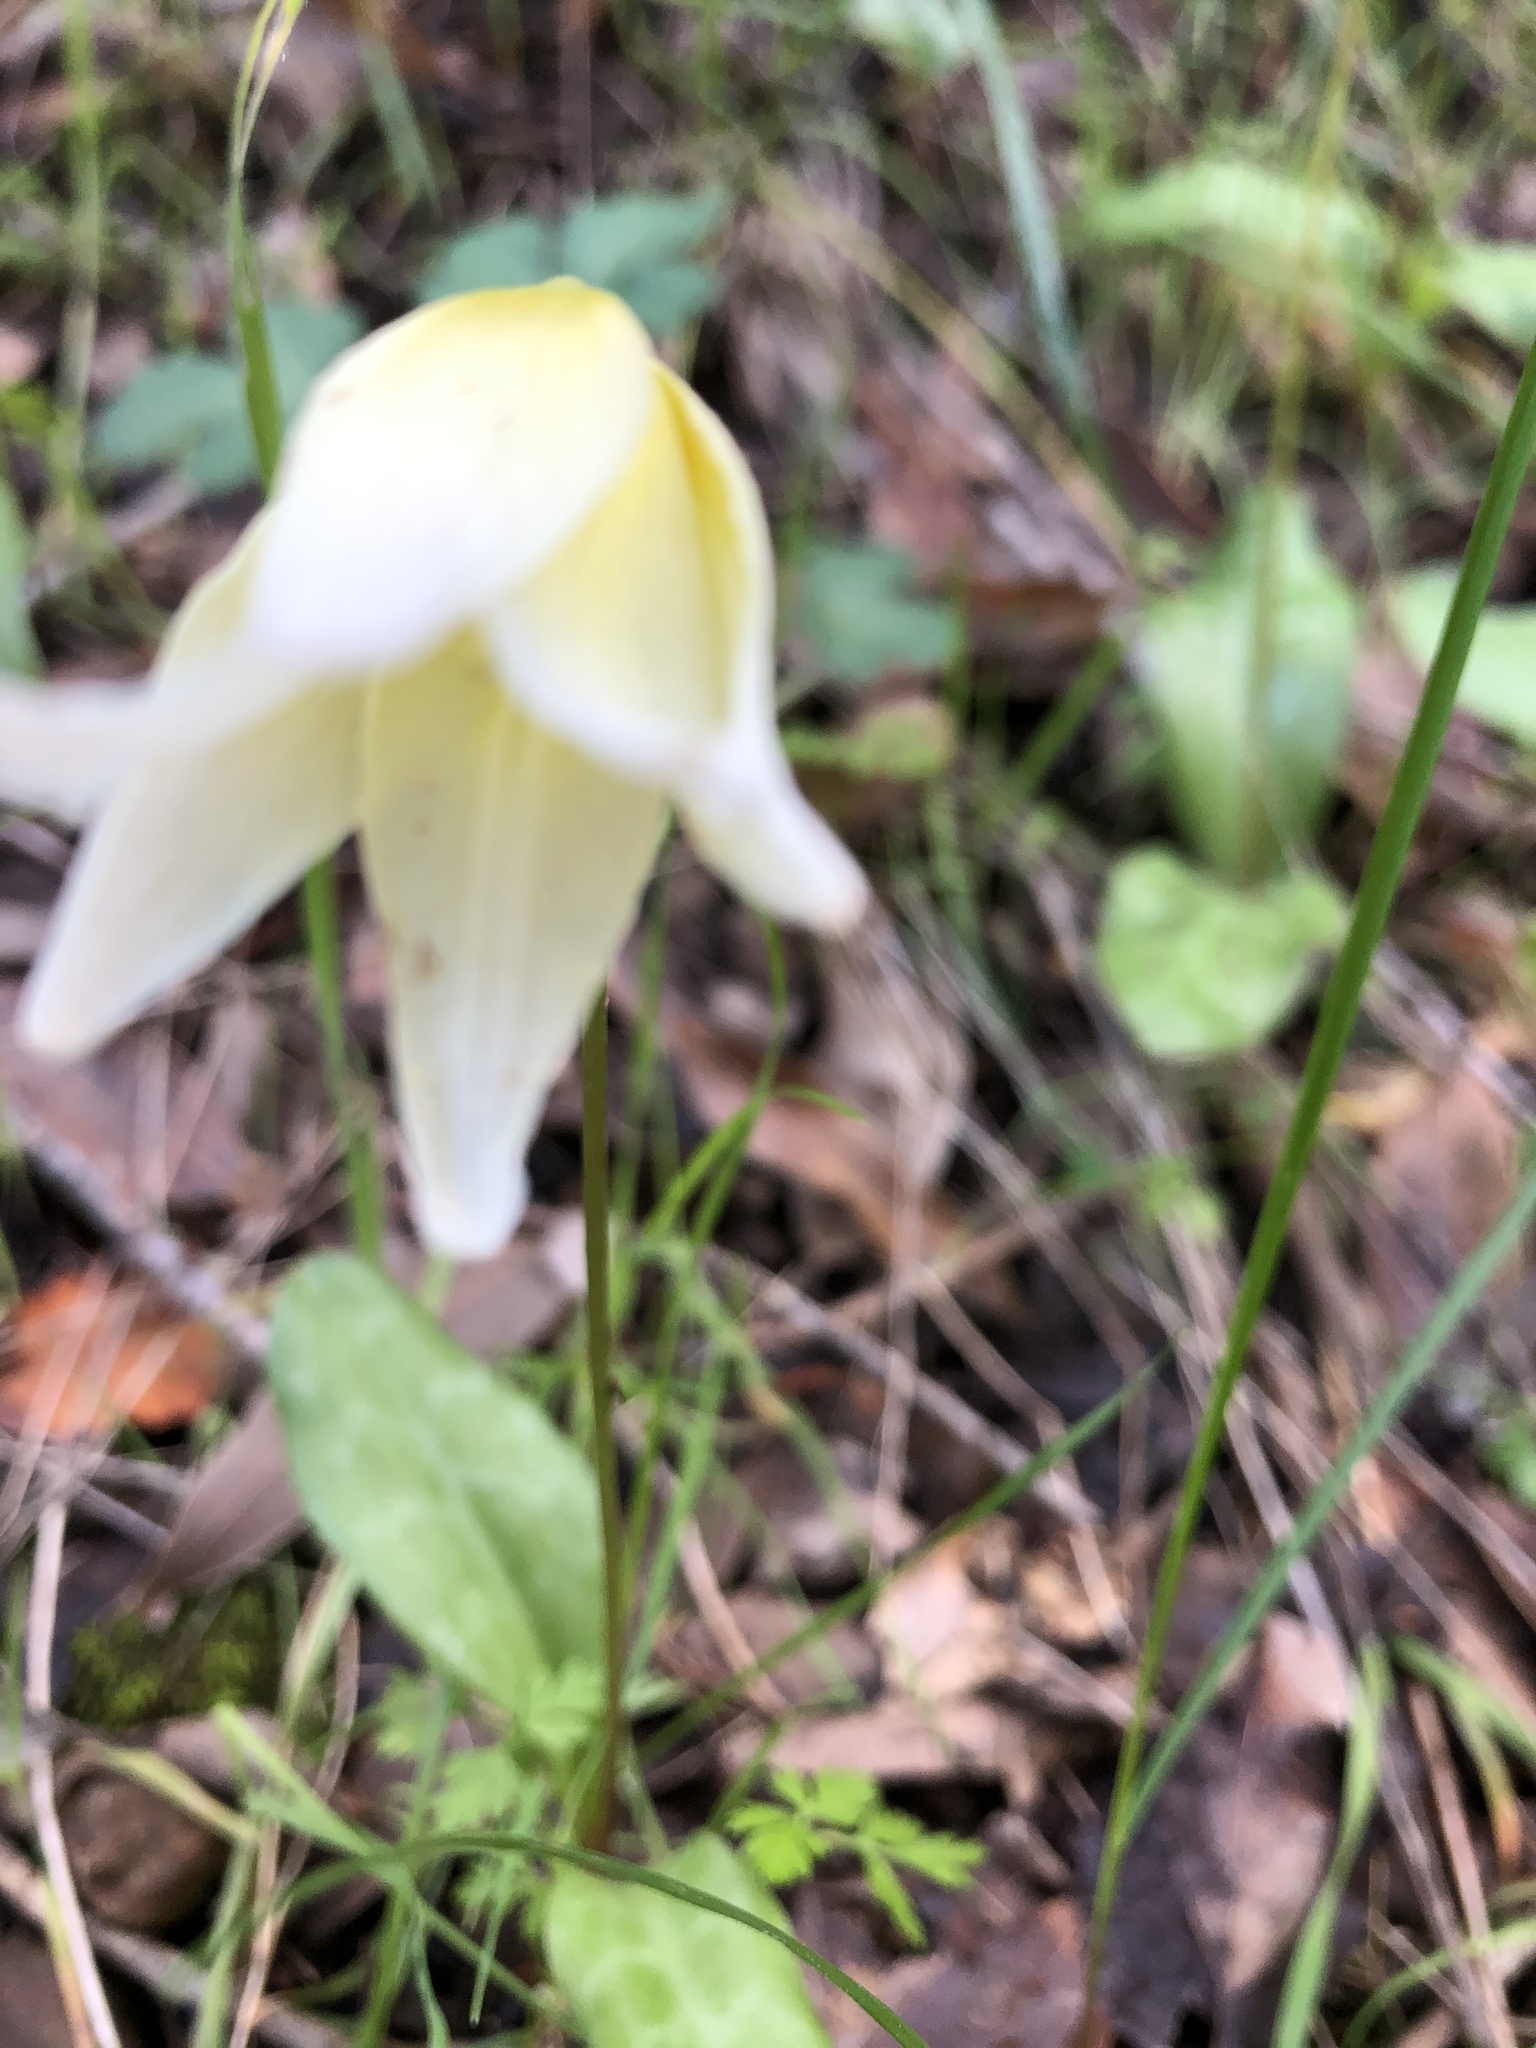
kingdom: Plantae
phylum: Tracheophyta
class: Liliopsida
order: Liliales
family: Liliaceae
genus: Erythronium
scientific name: Erythronium californicum
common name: Fawn-lily
